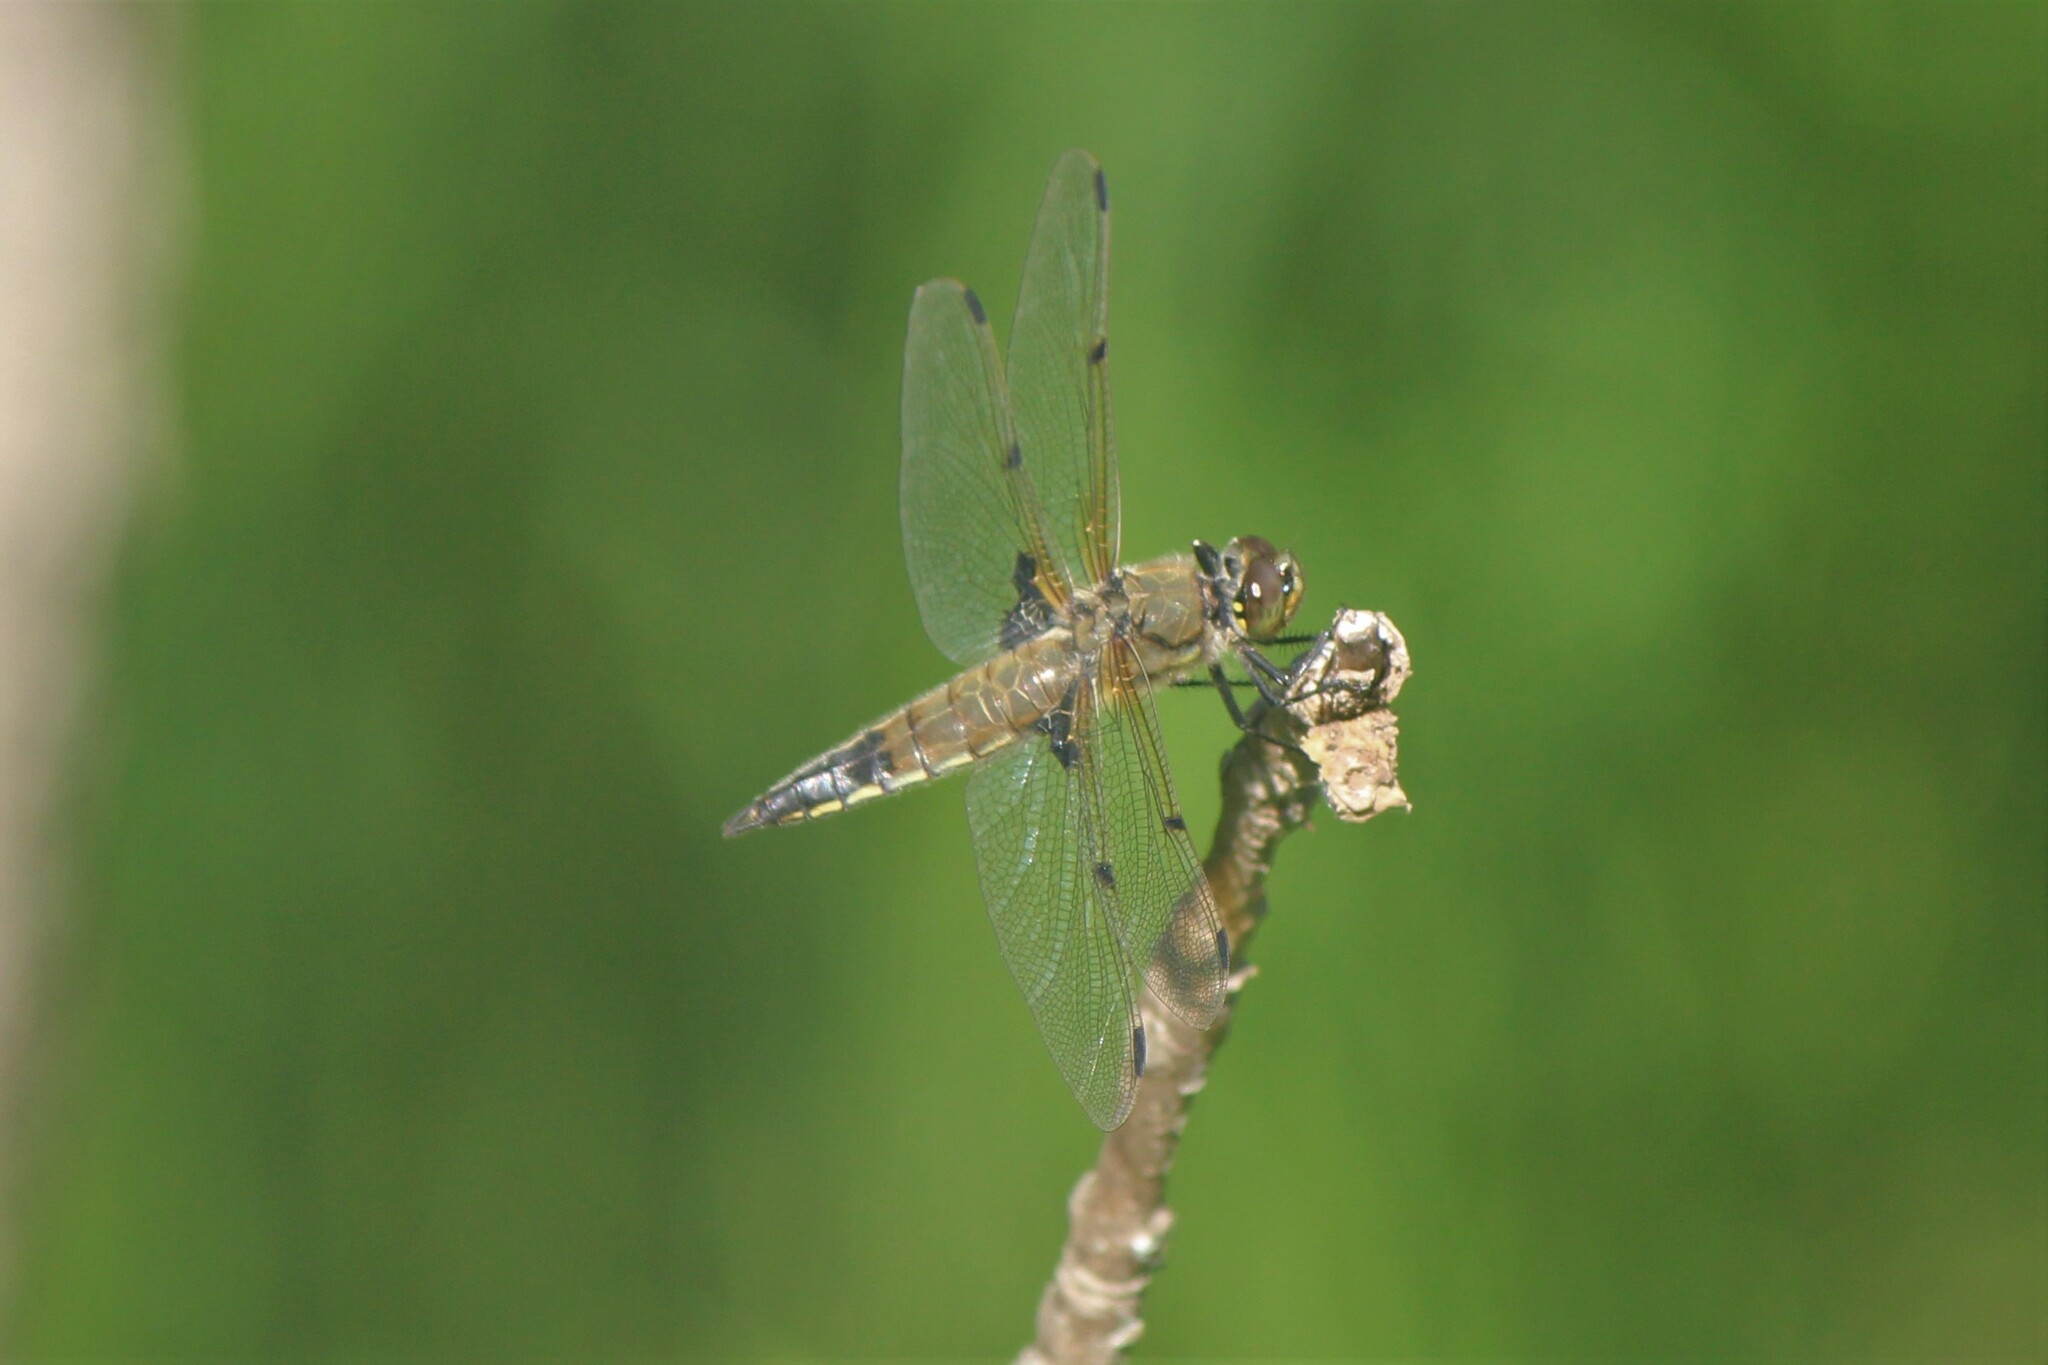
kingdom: Animalia
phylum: Arthropoda
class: Insecta
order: Odonata
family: Libellulidae
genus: Libellula
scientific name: Libellula quadrimaculata
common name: Four-spotted chaser
